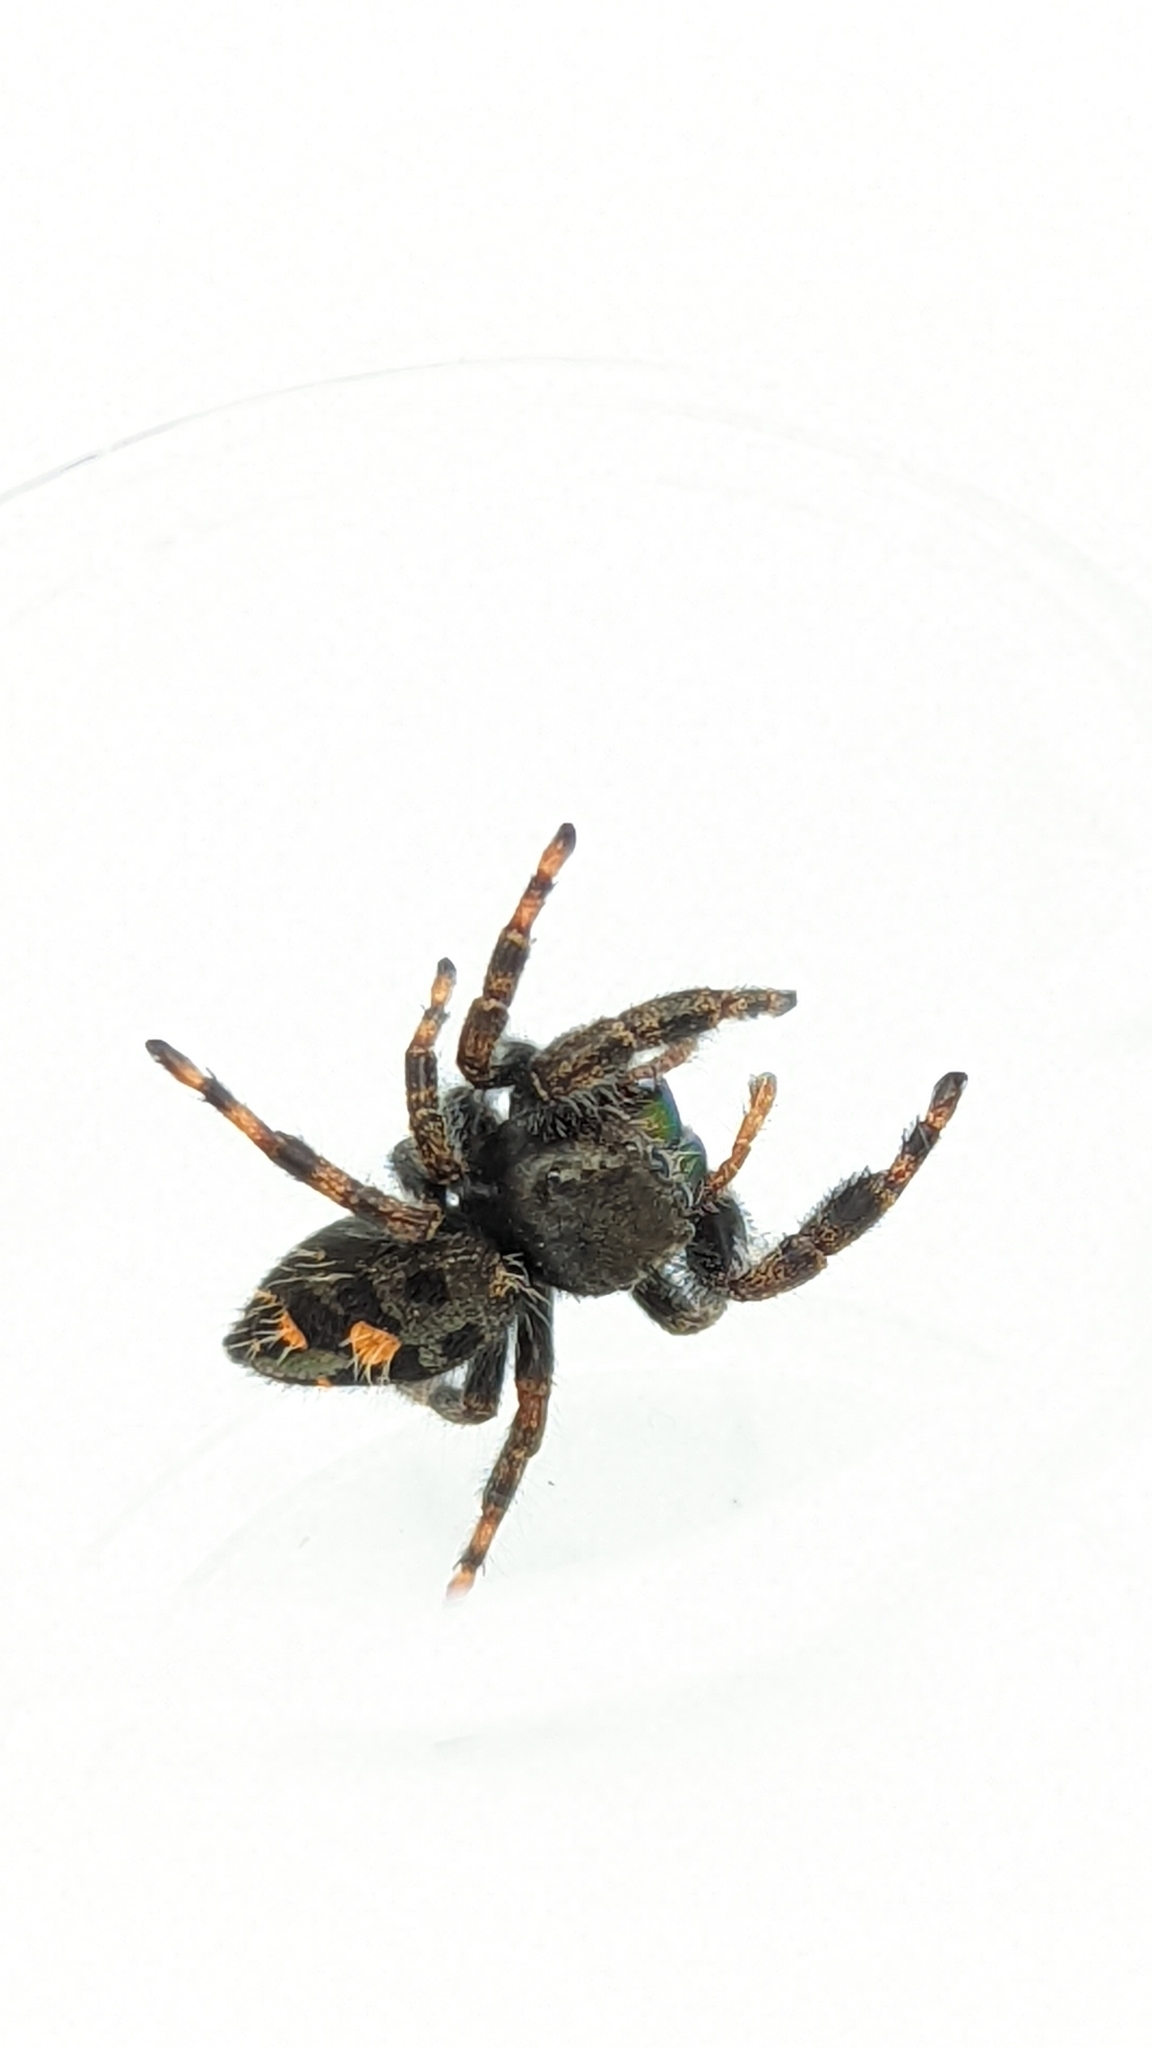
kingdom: Animalia
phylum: Arthropoda
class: Arachnida
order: Araneae
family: Salticidae
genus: Phidippus
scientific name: Phidippus audax
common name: Bold jumper
